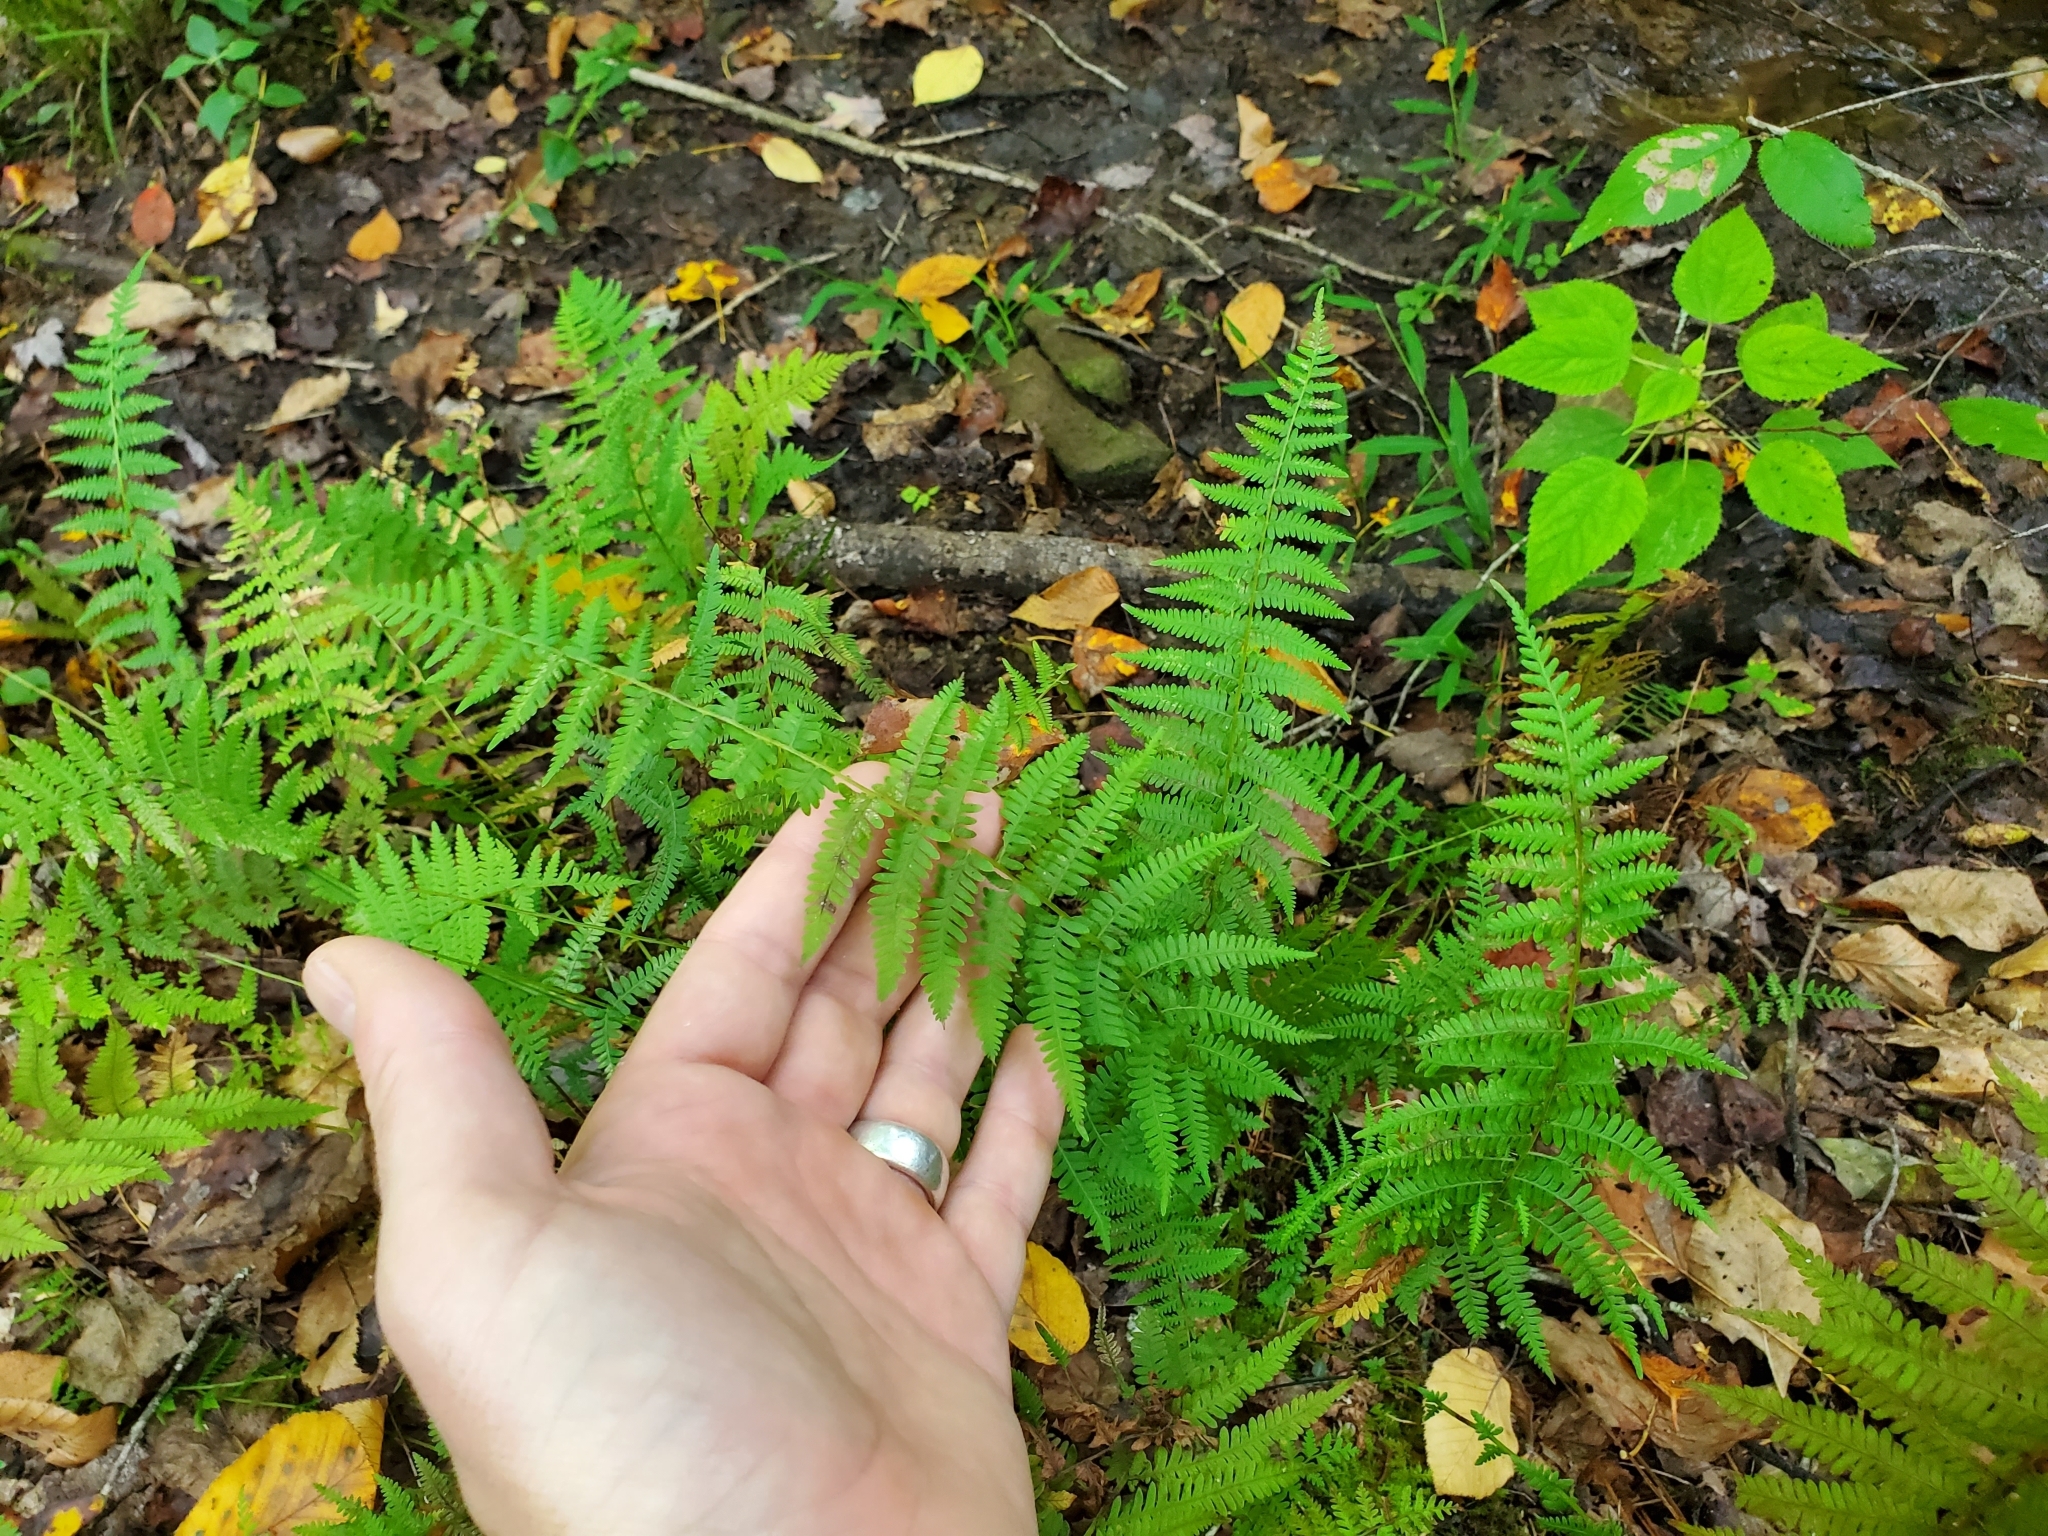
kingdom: Plantae
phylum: Tracheophyta
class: Polypodiopsida
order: Polypodiales
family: Thelypteridaceae
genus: Amauropelta
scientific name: Amauropelta noveboracensis
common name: New york fern
